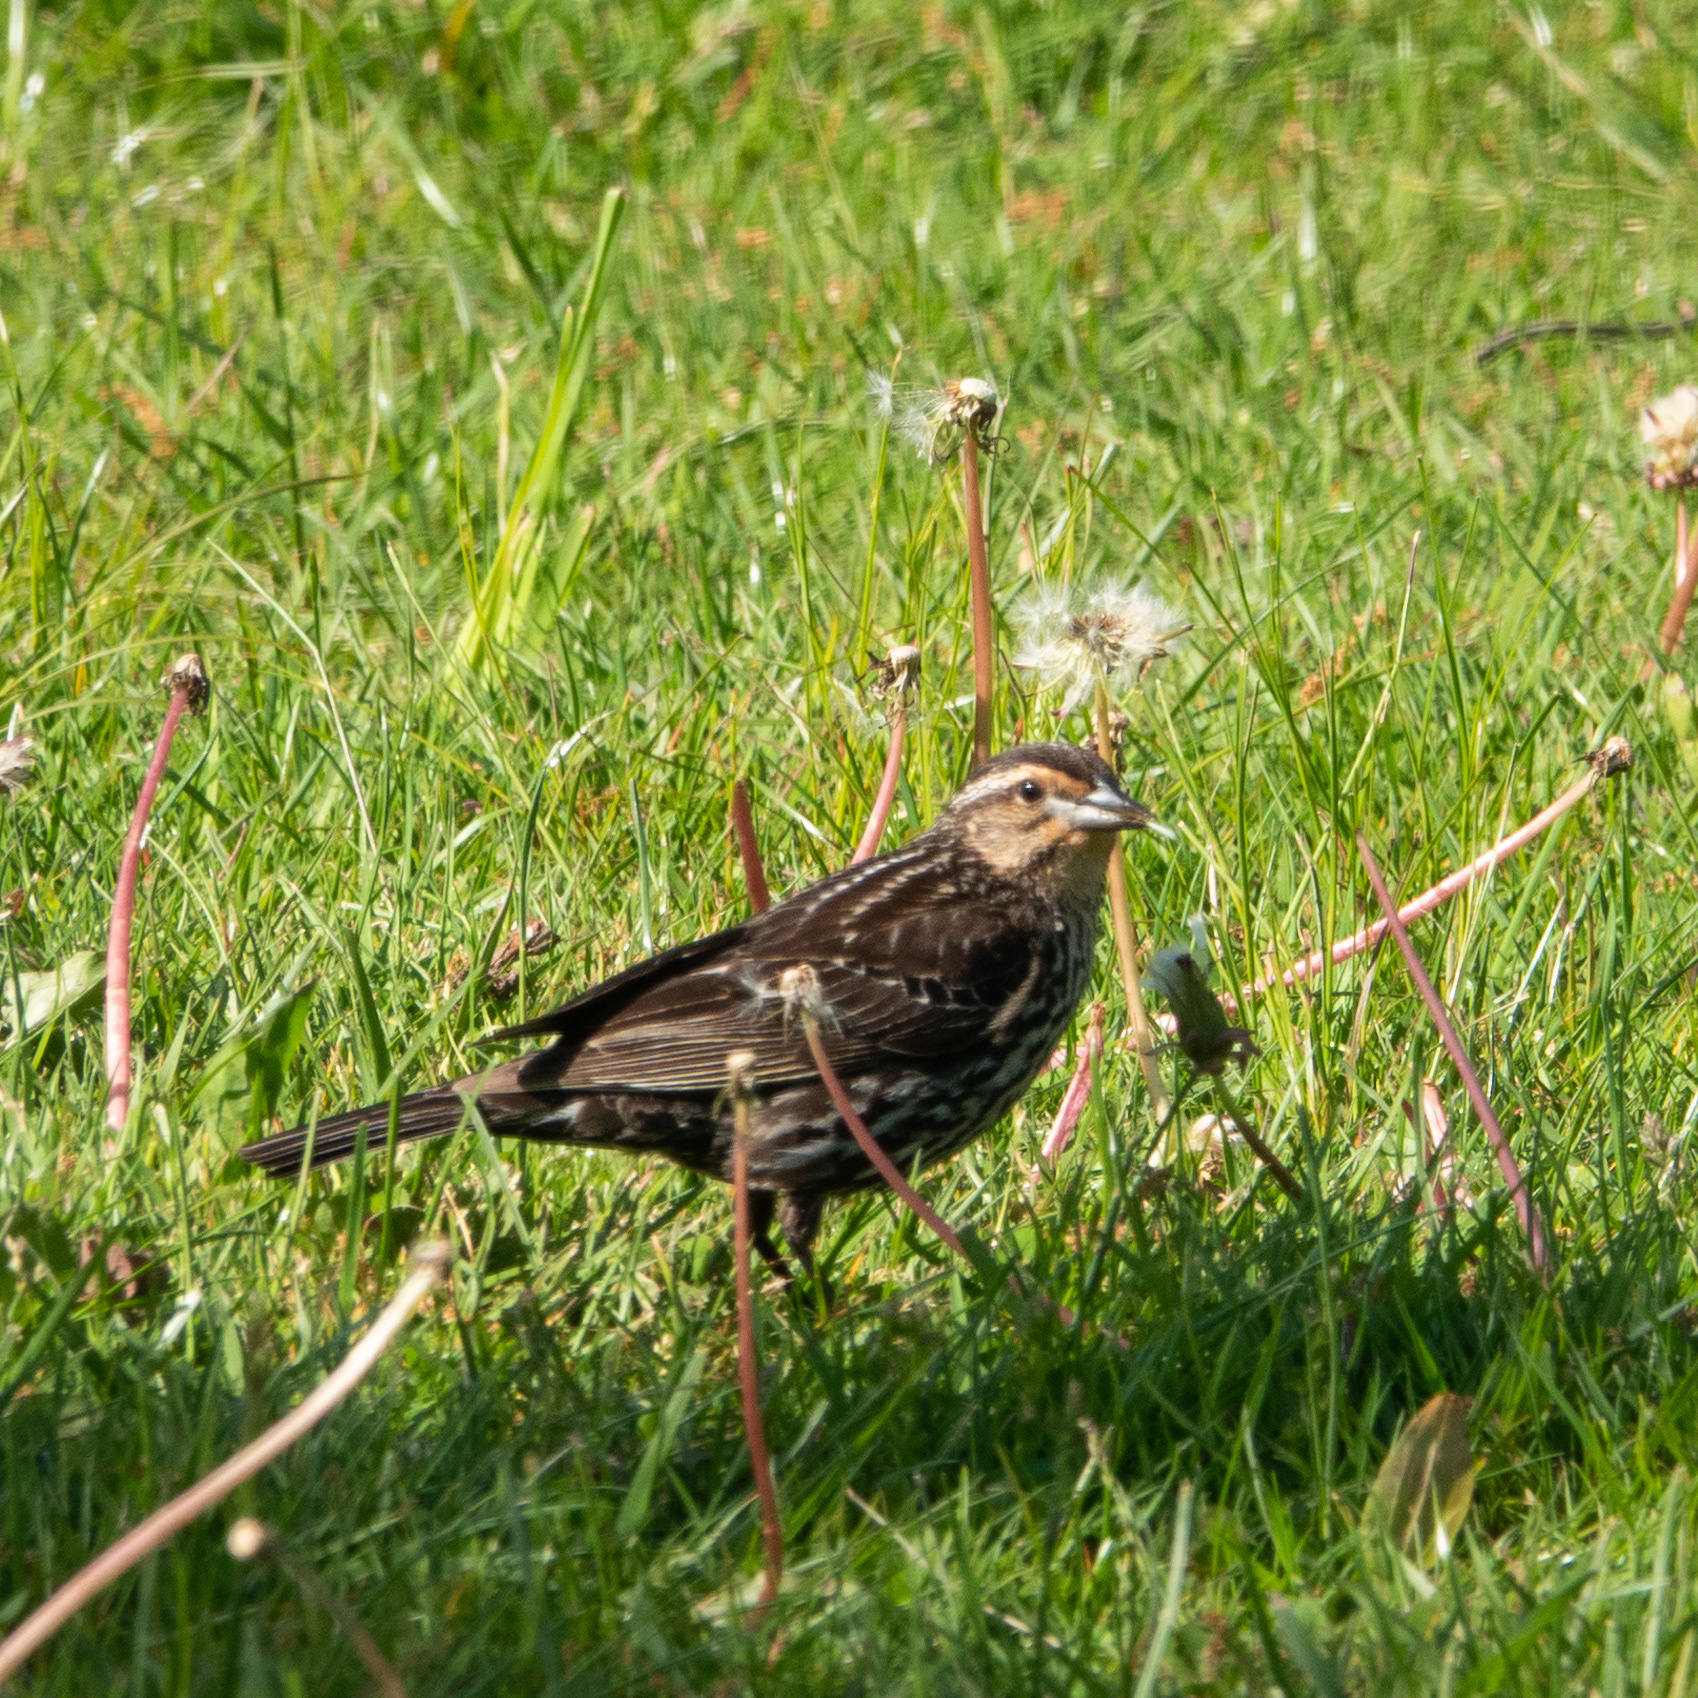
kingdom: Animalia
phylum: Chordata
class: Aves
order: Passeriformes
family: Icteridae
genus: Agelaius
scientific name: Agelaius phoeniceus
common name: Red-winged blackbird
